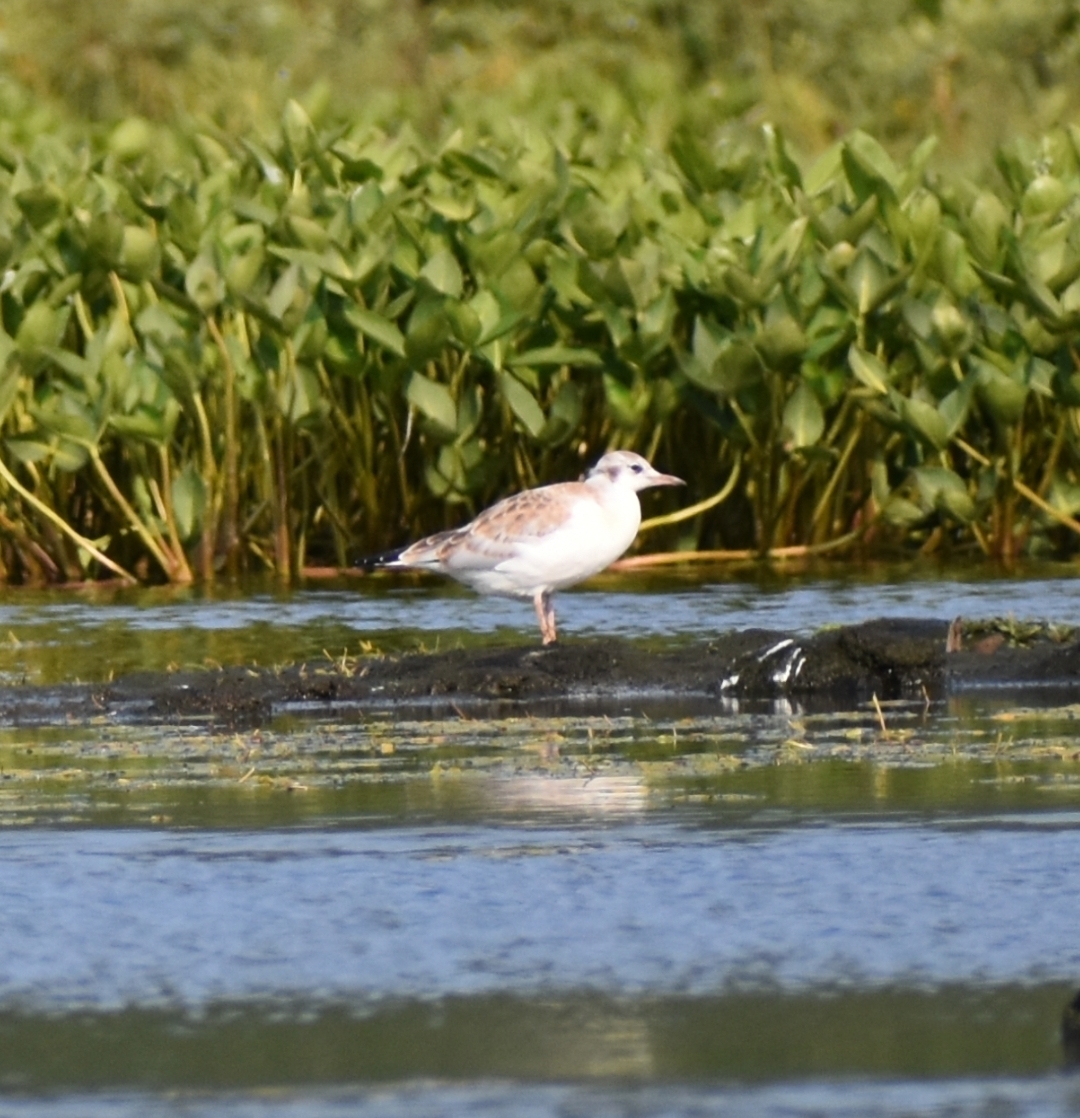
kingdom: Animalia
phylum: Chordata
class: Aves
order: Charadriiformes
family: Laridae
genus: Chroicocephalus
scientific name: Chroicocephalus ridibundus
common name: Black-headed gull
